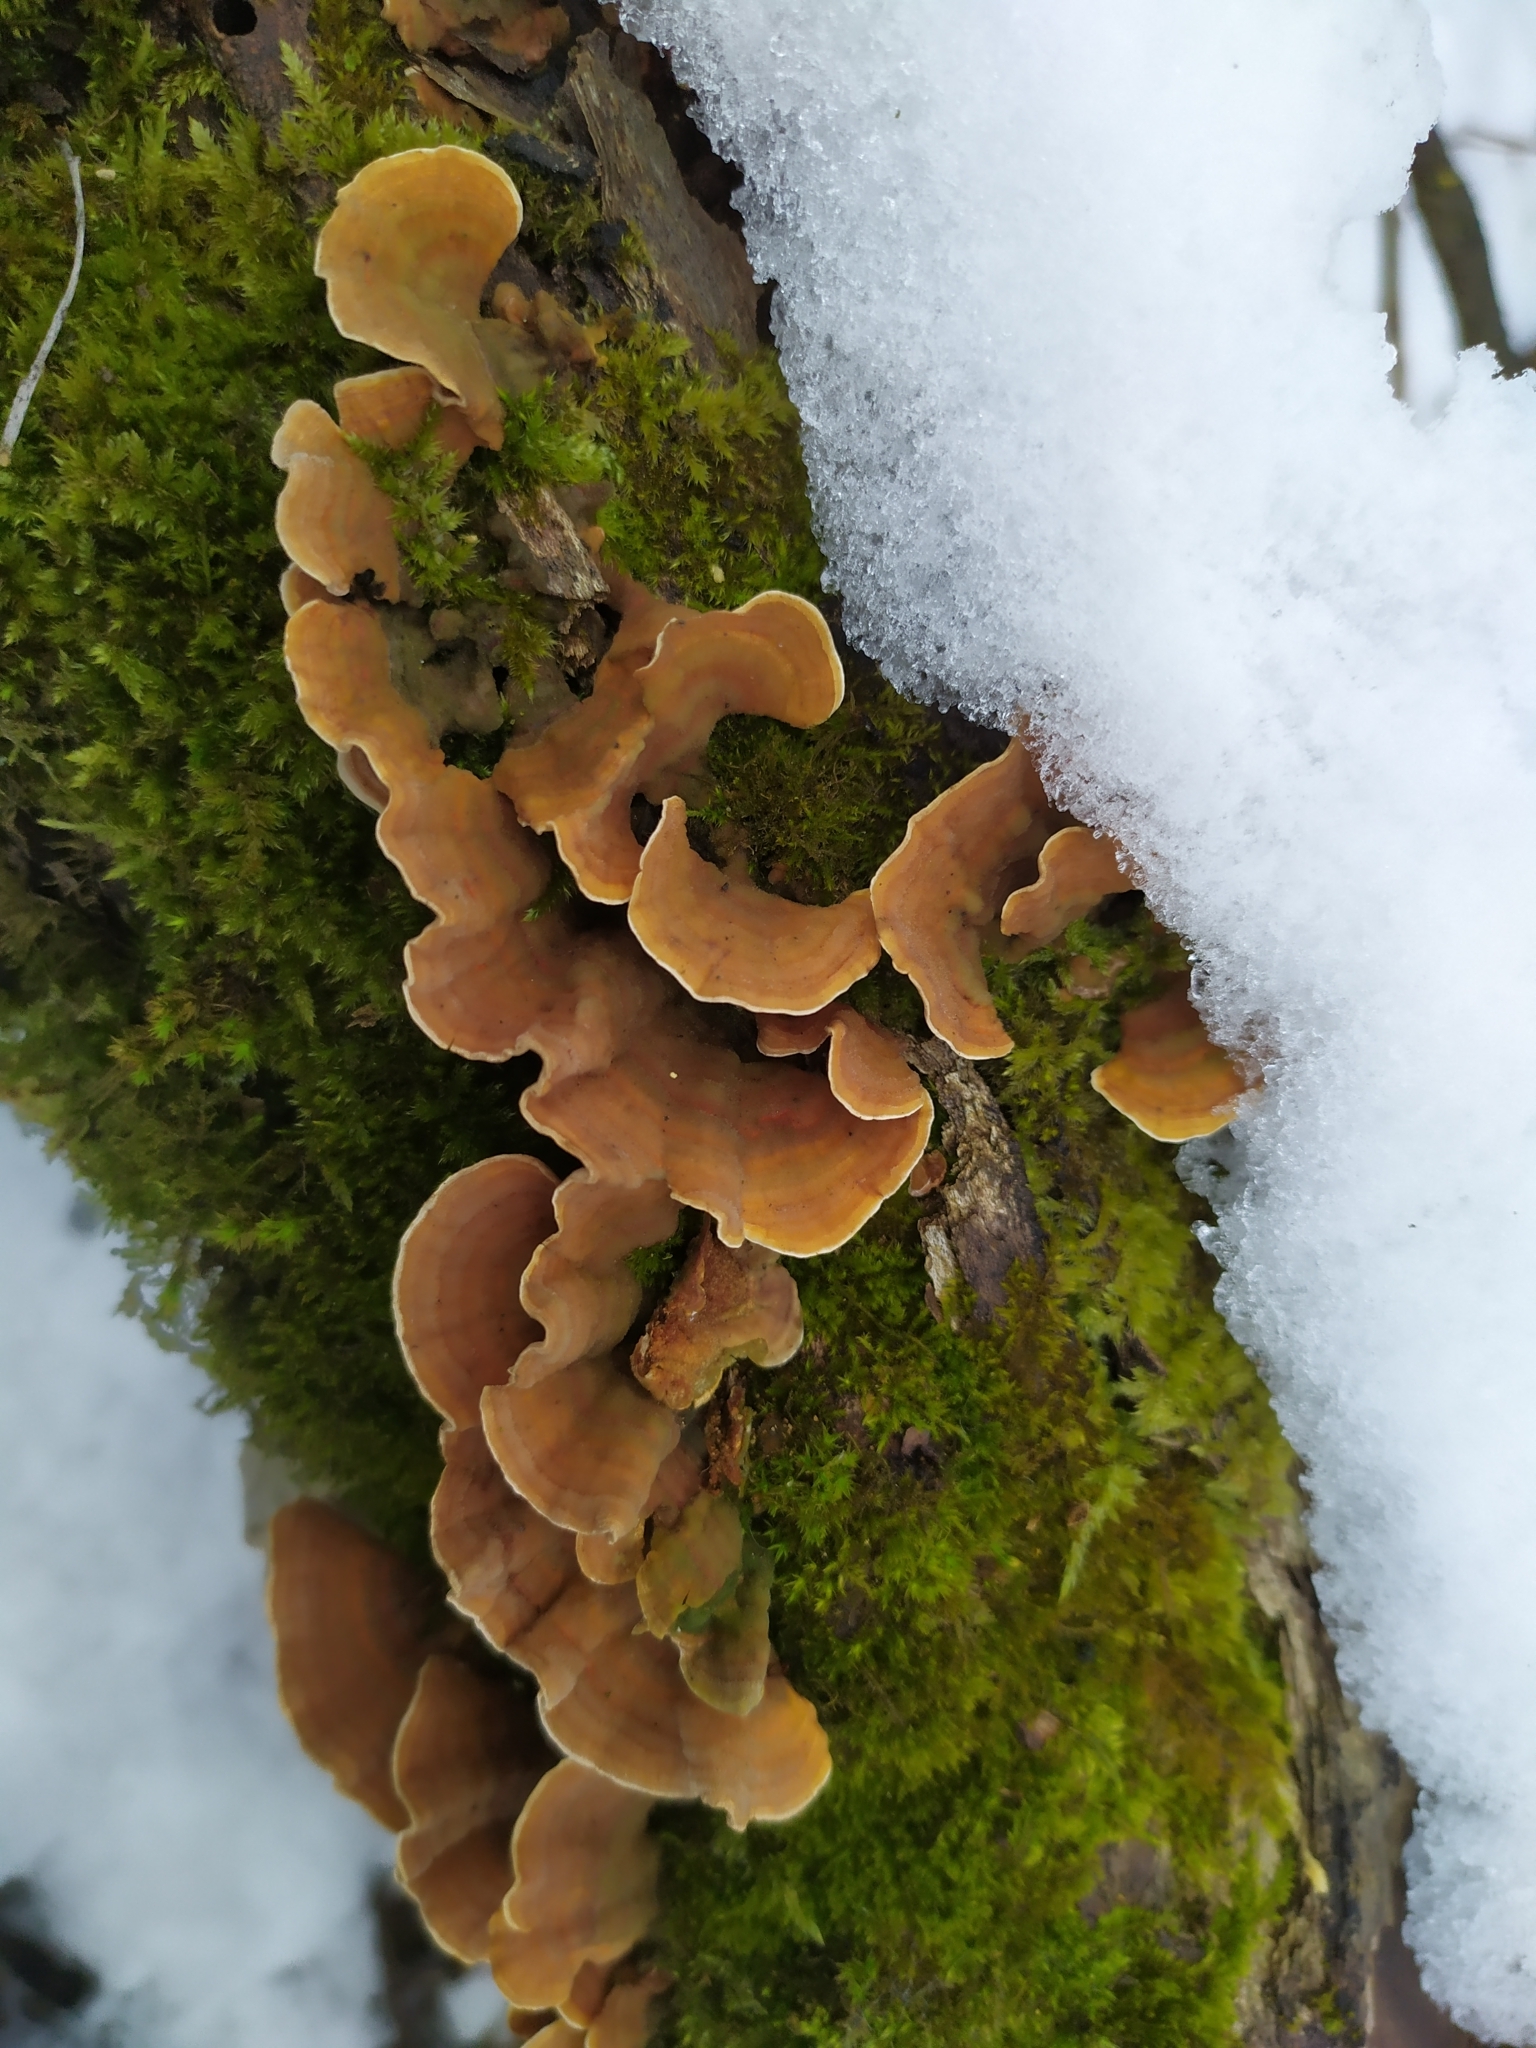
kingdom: Fungi
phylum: Basidiomycota
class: Agaricomycetes
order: Russulales
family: Stereaceae
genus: Stereum
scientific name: Stereum subtomentosum
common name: Yellowing curtain crust
